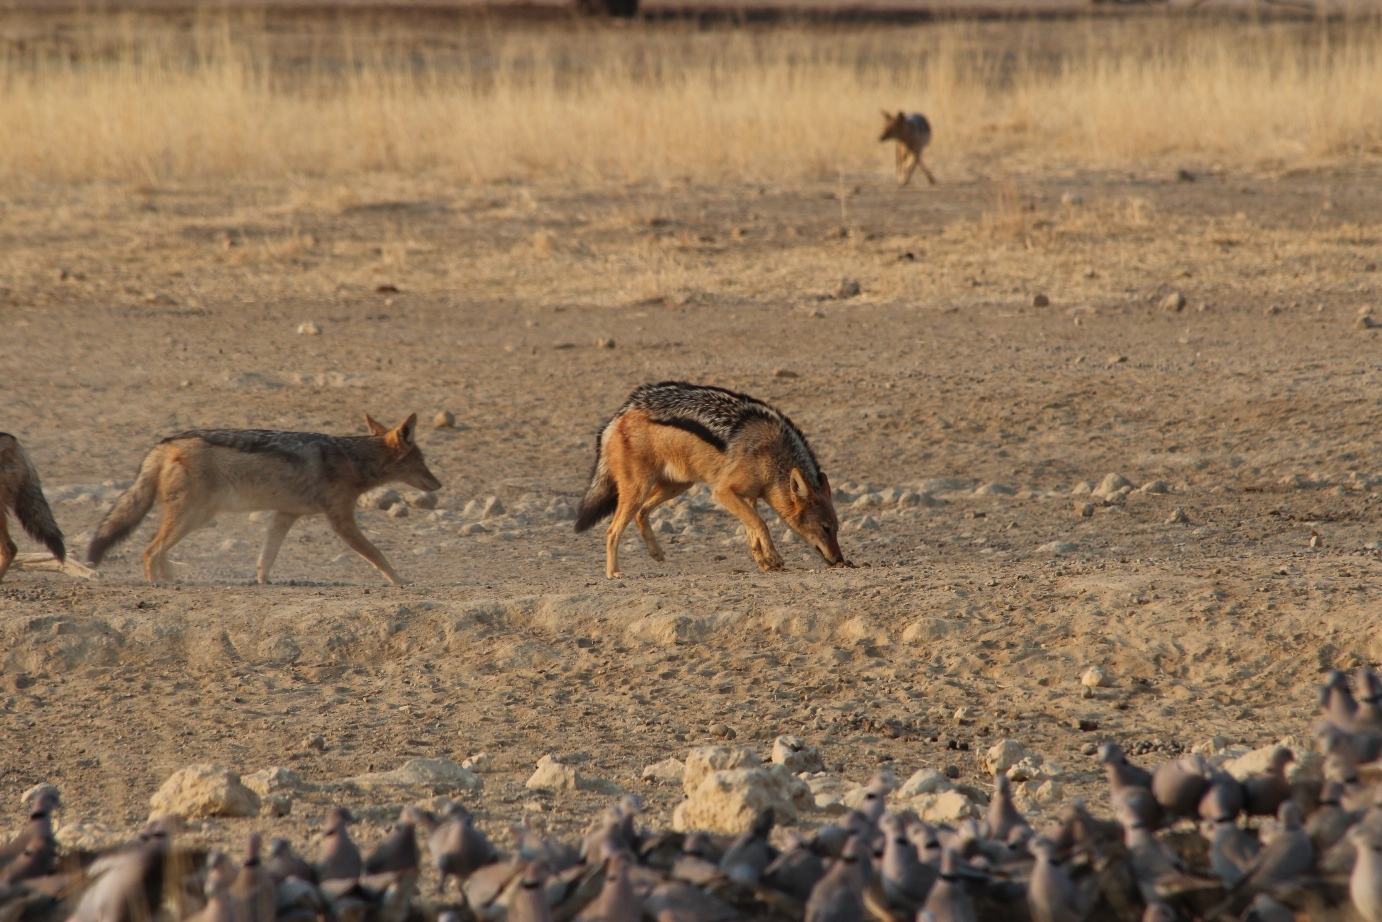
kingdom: Animalia
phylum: Chordata
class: Mammalia
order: Carnivora
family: Canidae
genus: Lupulella
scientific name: Lupulella
